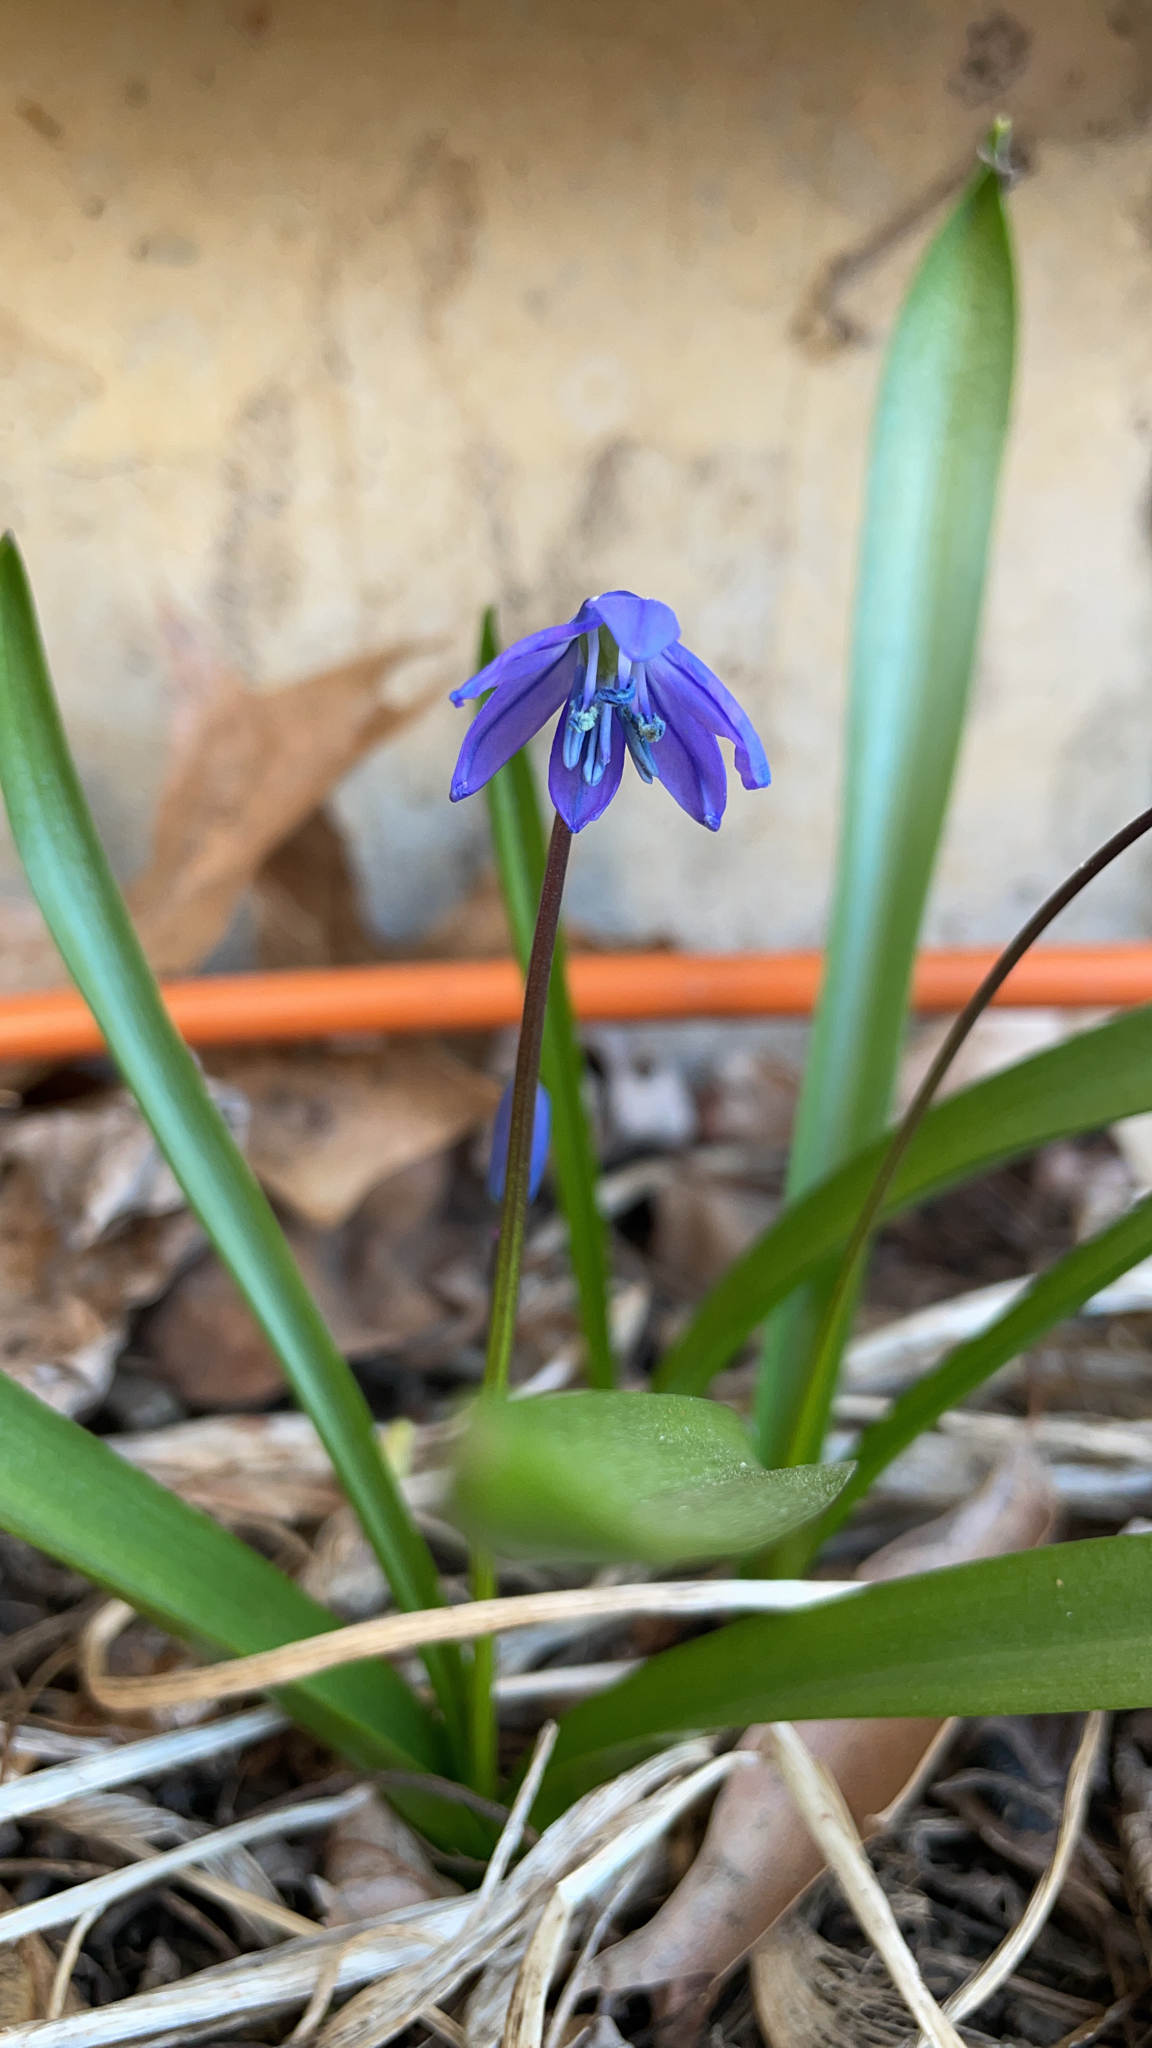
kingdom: Plantae
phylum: Tracheophyta
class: Liliopsida
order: Asparagales
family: Asparagaceae
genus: Scilla
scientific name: Scilla siberica
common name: Siberian squill
